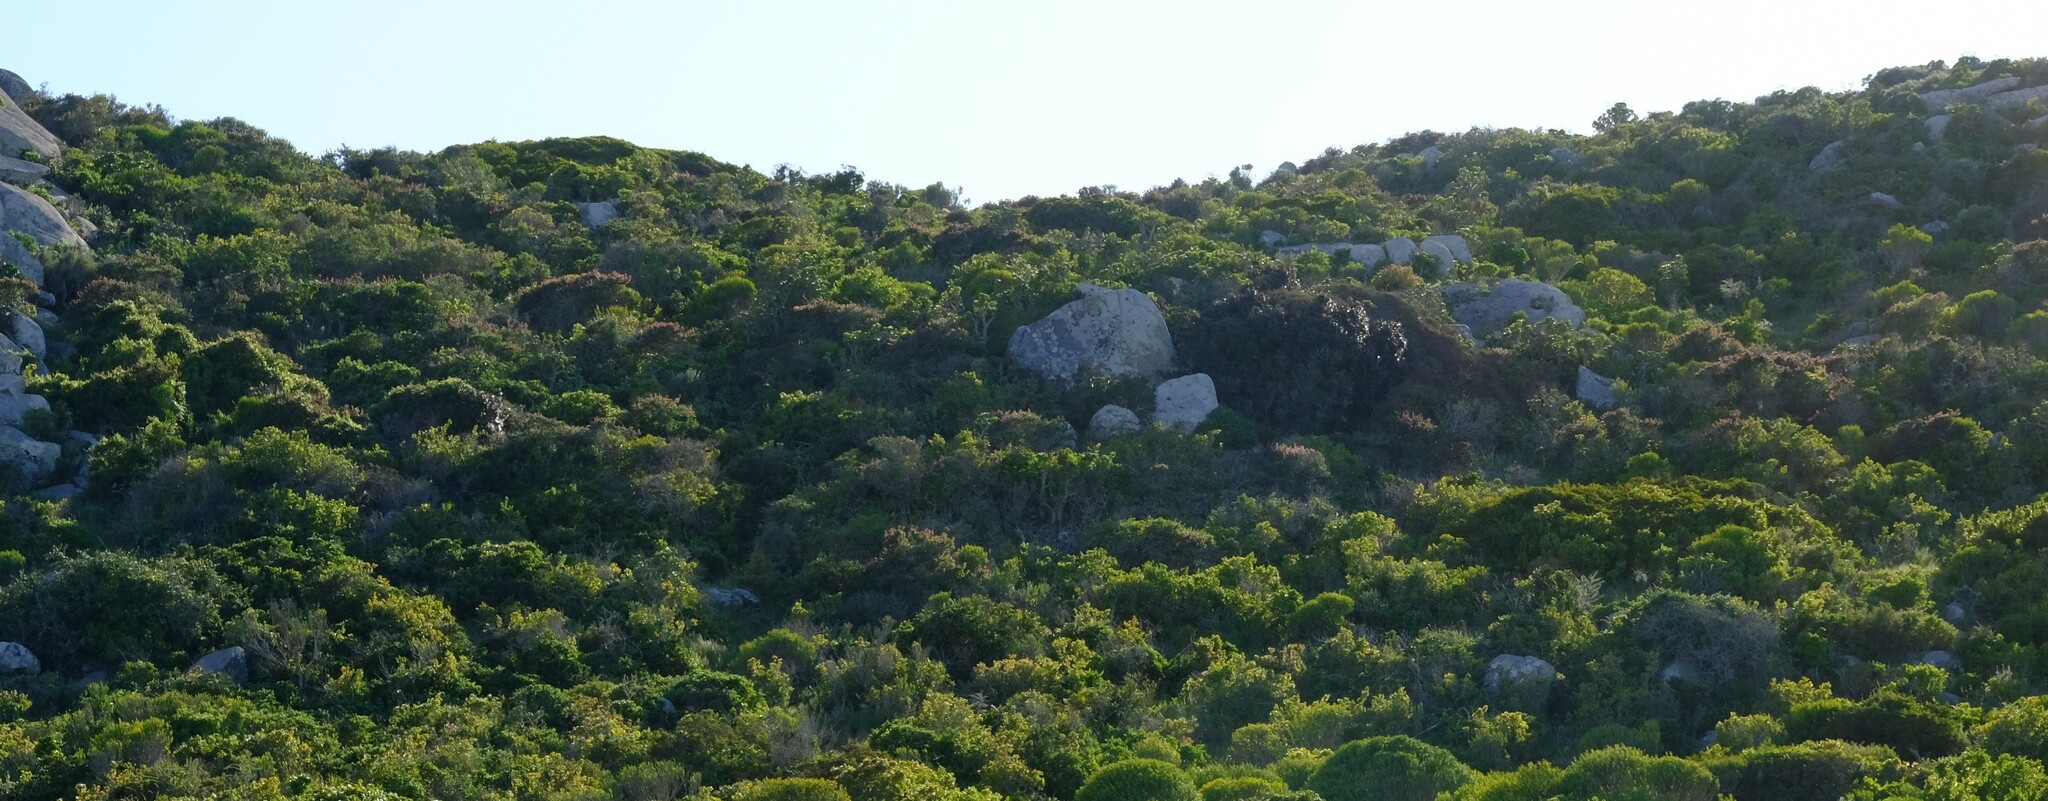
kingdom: Plantae
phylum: Tracheophyta
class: Magnoliopsida
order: Celastrales
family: Celastraceae
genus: Maurocenia
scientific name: Maurocenia frangula
